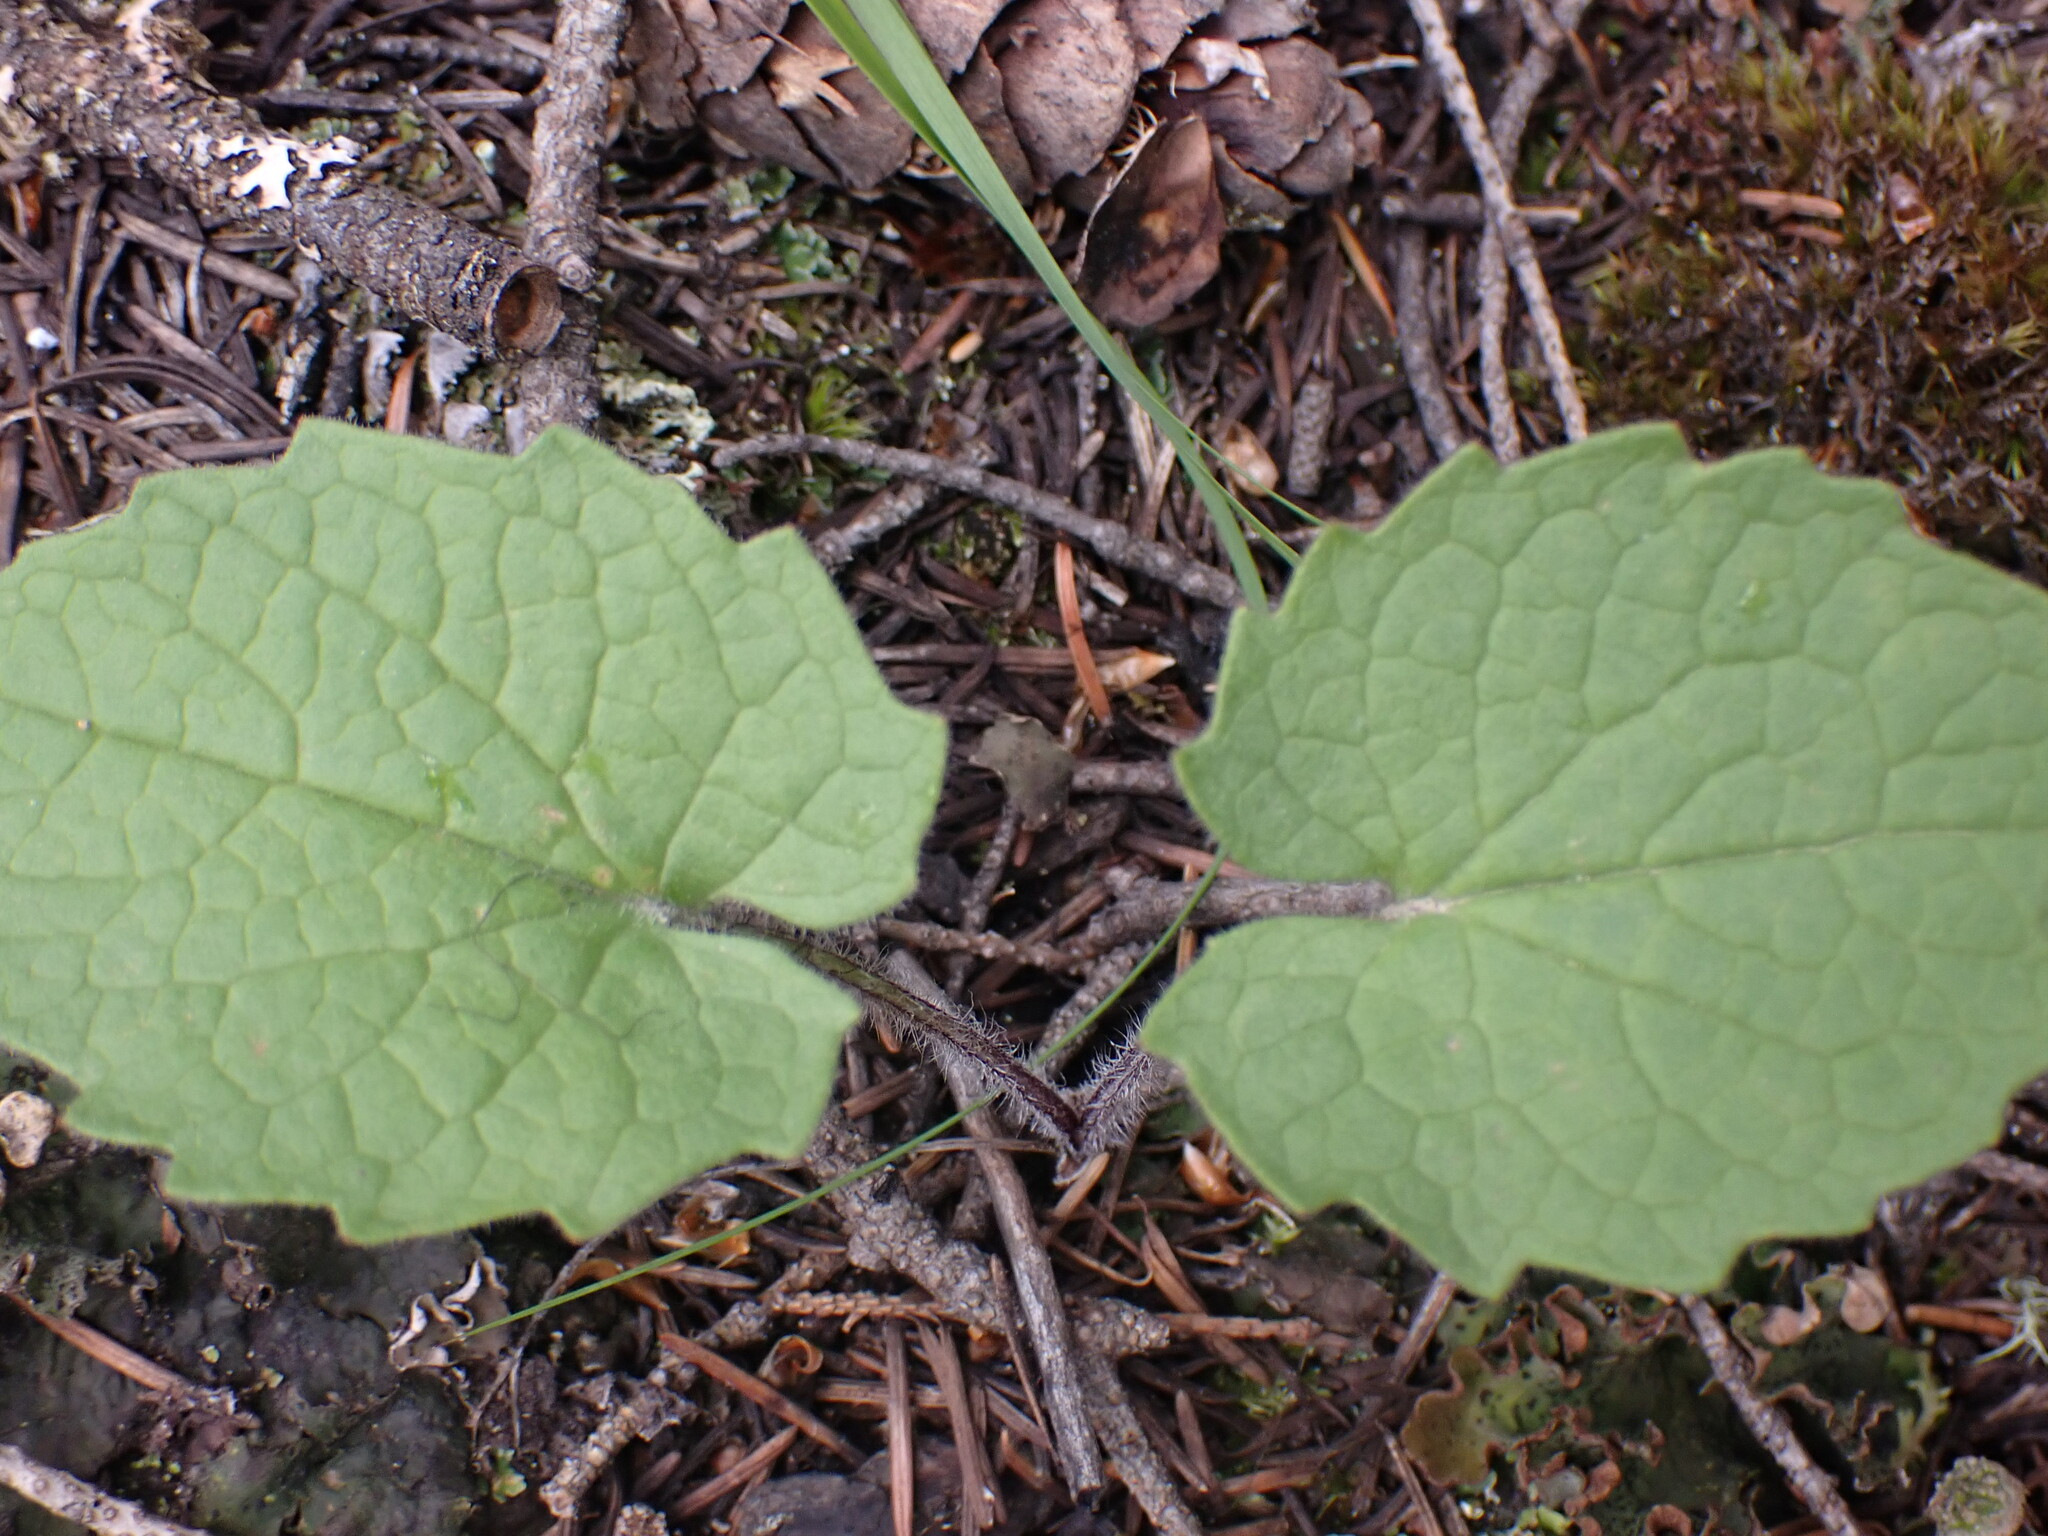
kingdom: Plantae
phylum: Tracheophyta
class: Magnoliopsida
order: Asterales
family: Asteraceae
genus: Arnica
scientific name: Arnica cordifolia
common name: Heart-leaf arnica
